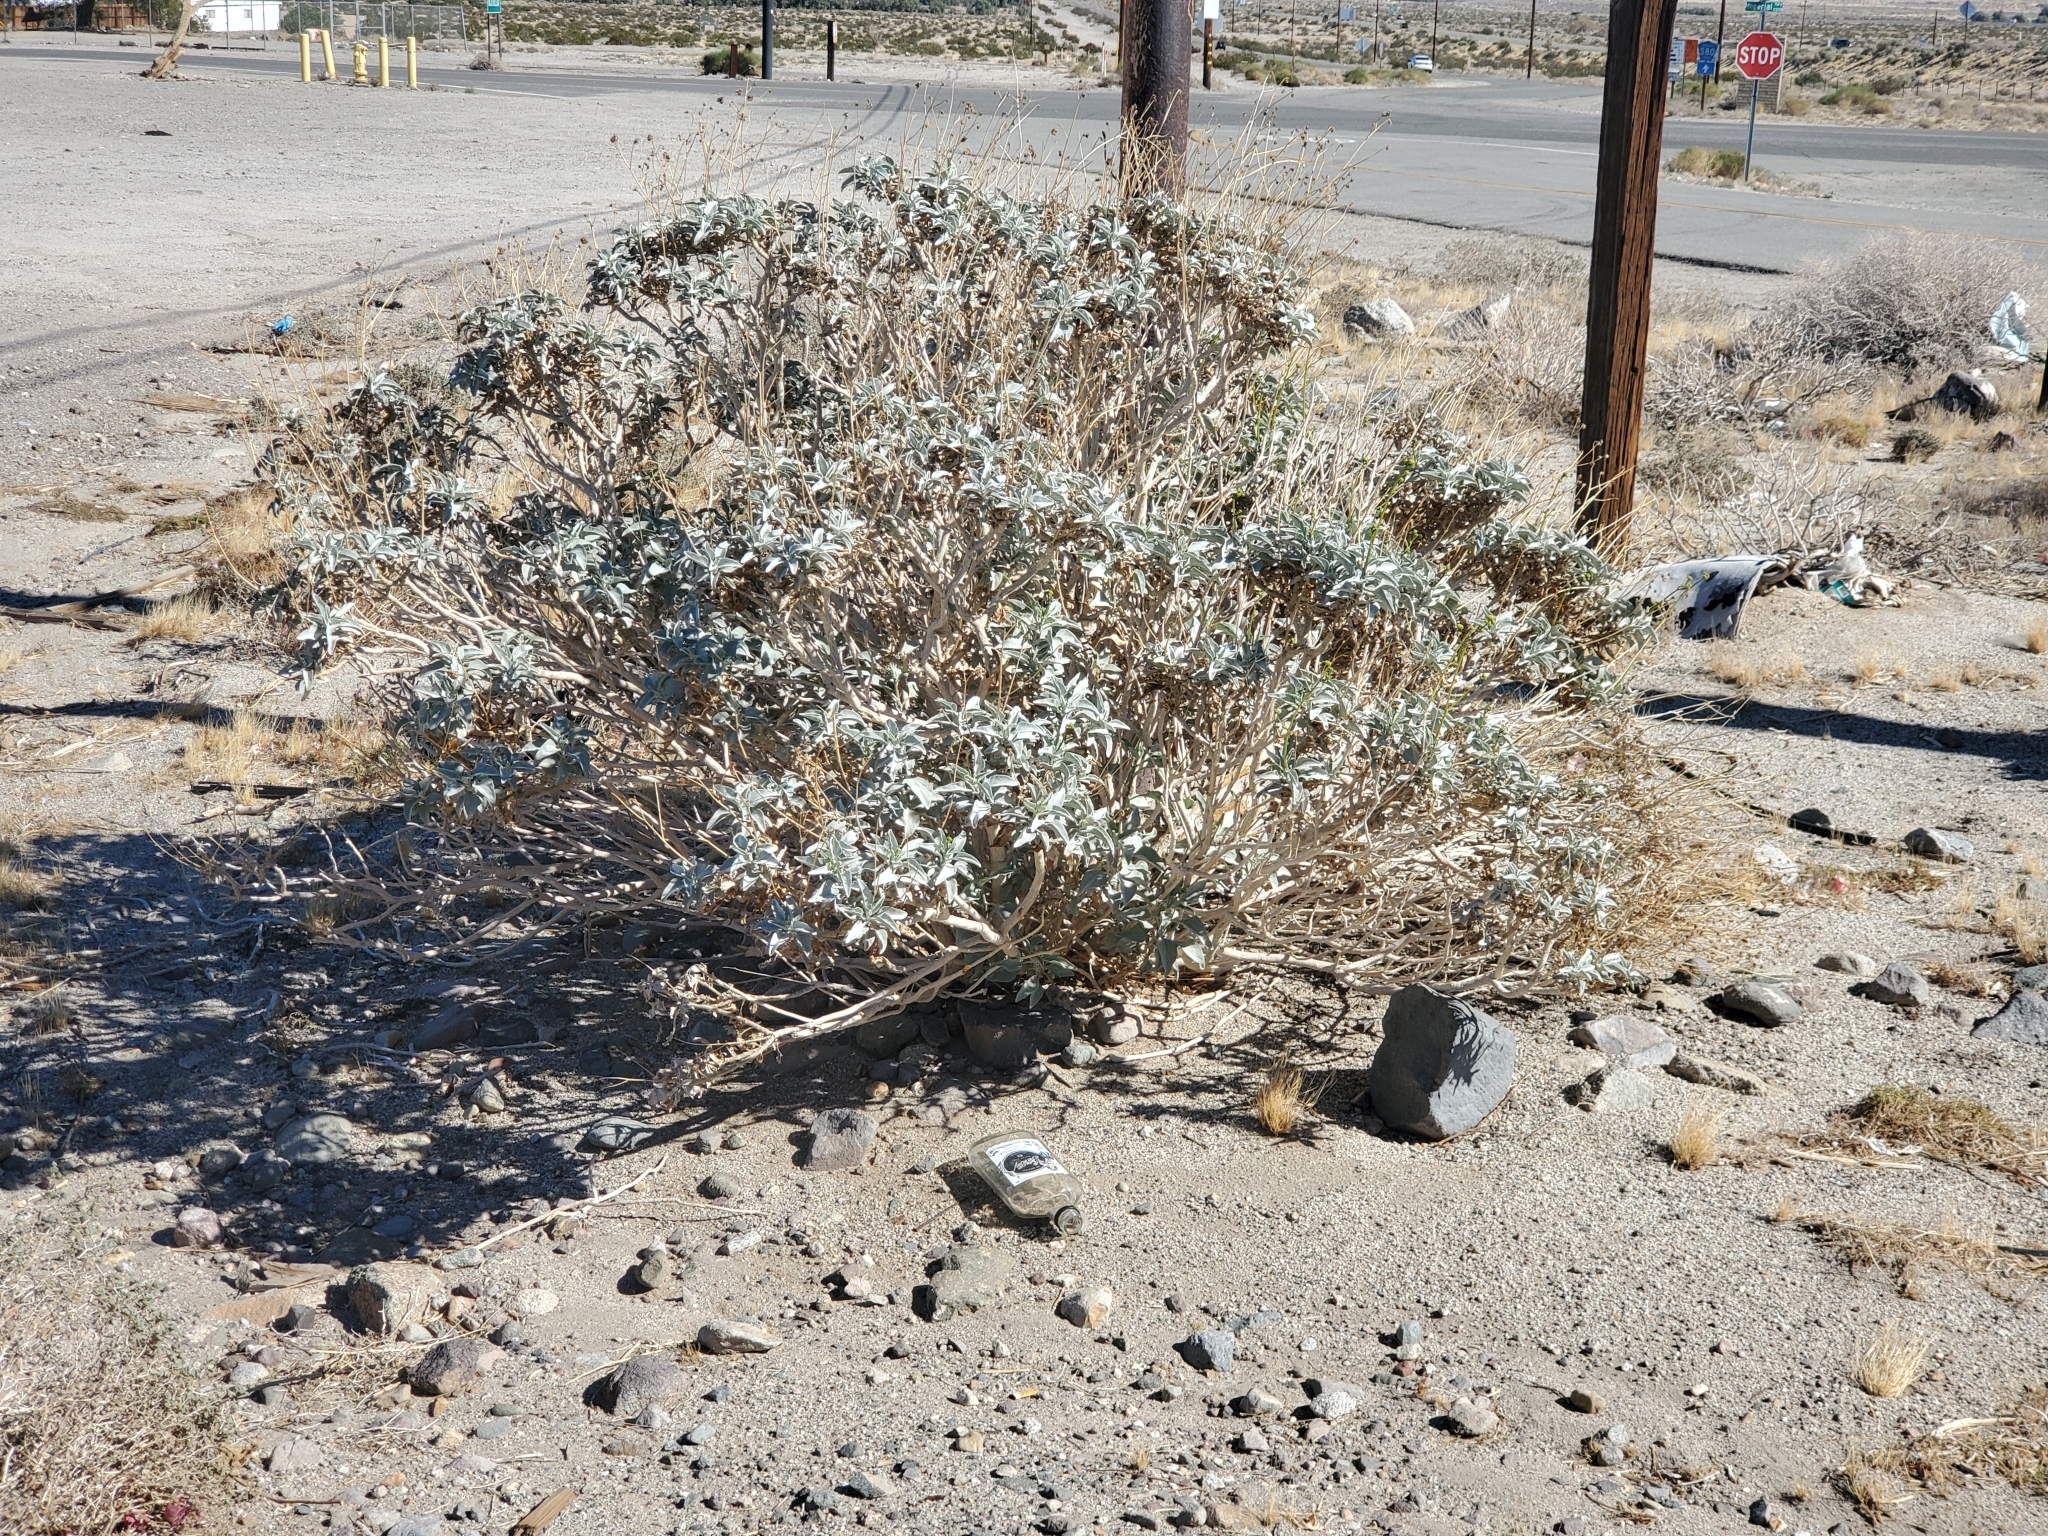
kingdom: Plantae
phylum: Tracheophyta
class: Magnoliopsida
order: Asterales
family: Asteraceae
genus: Encelia
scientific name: Encelia farinosa
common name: Brittlebush
